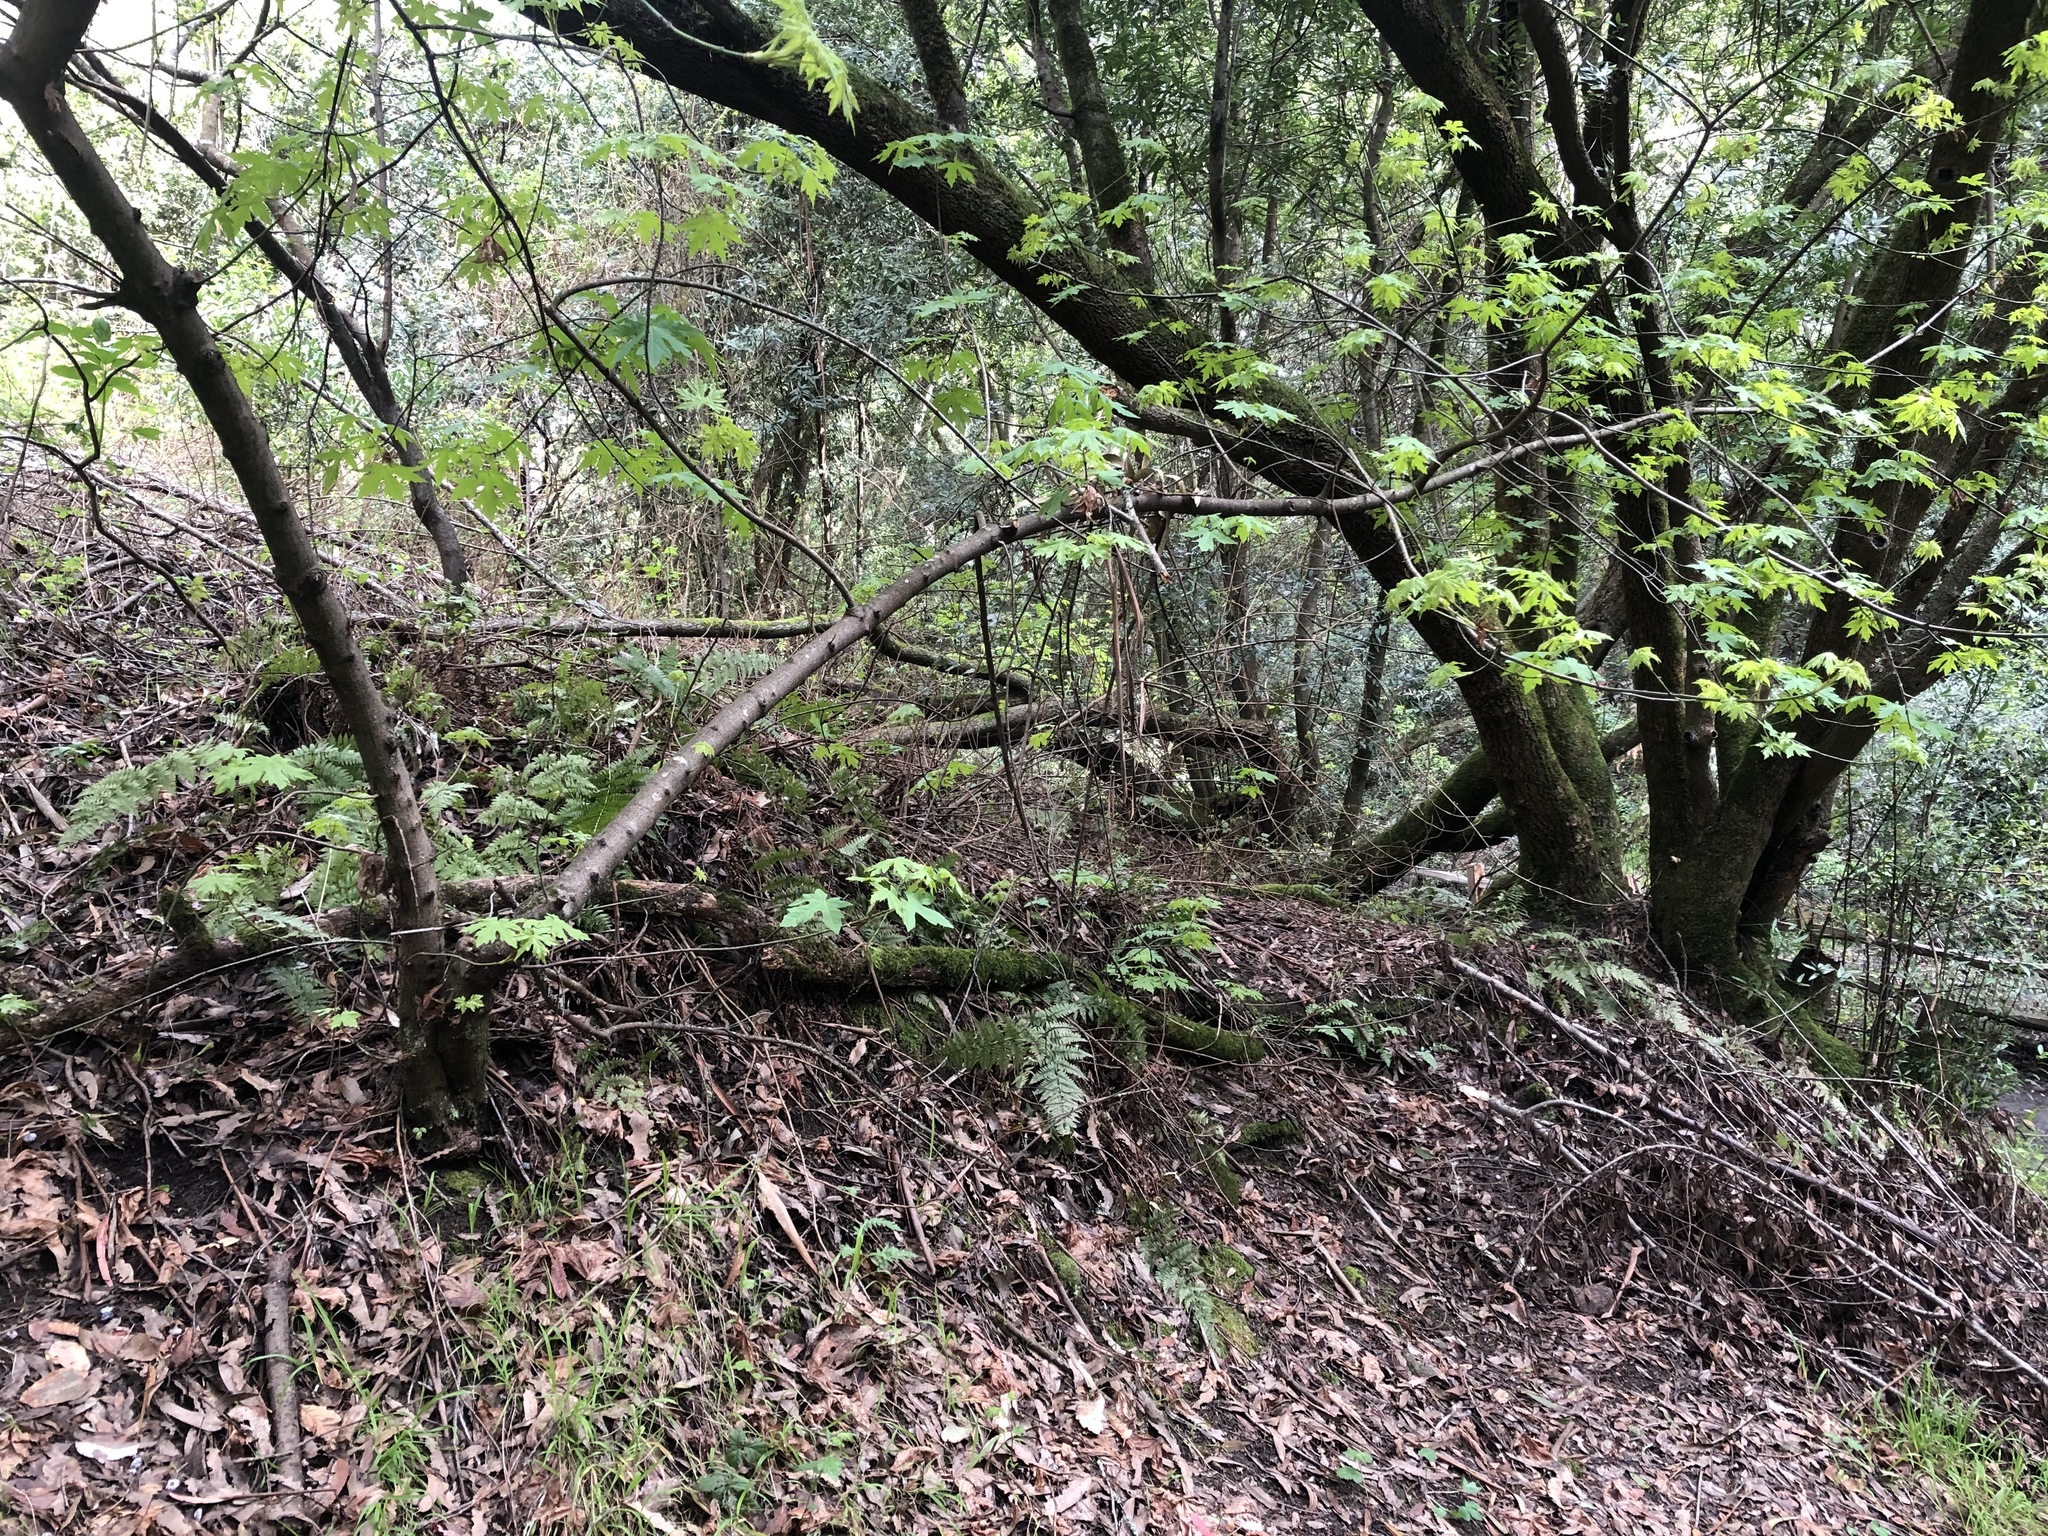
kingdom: Plantae
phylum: Tracheophyta
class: Magnoliopsida
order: Sapindales
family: Sapindaceae
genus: Acer
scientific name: Acer macrophyllum
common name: Oregon maple
